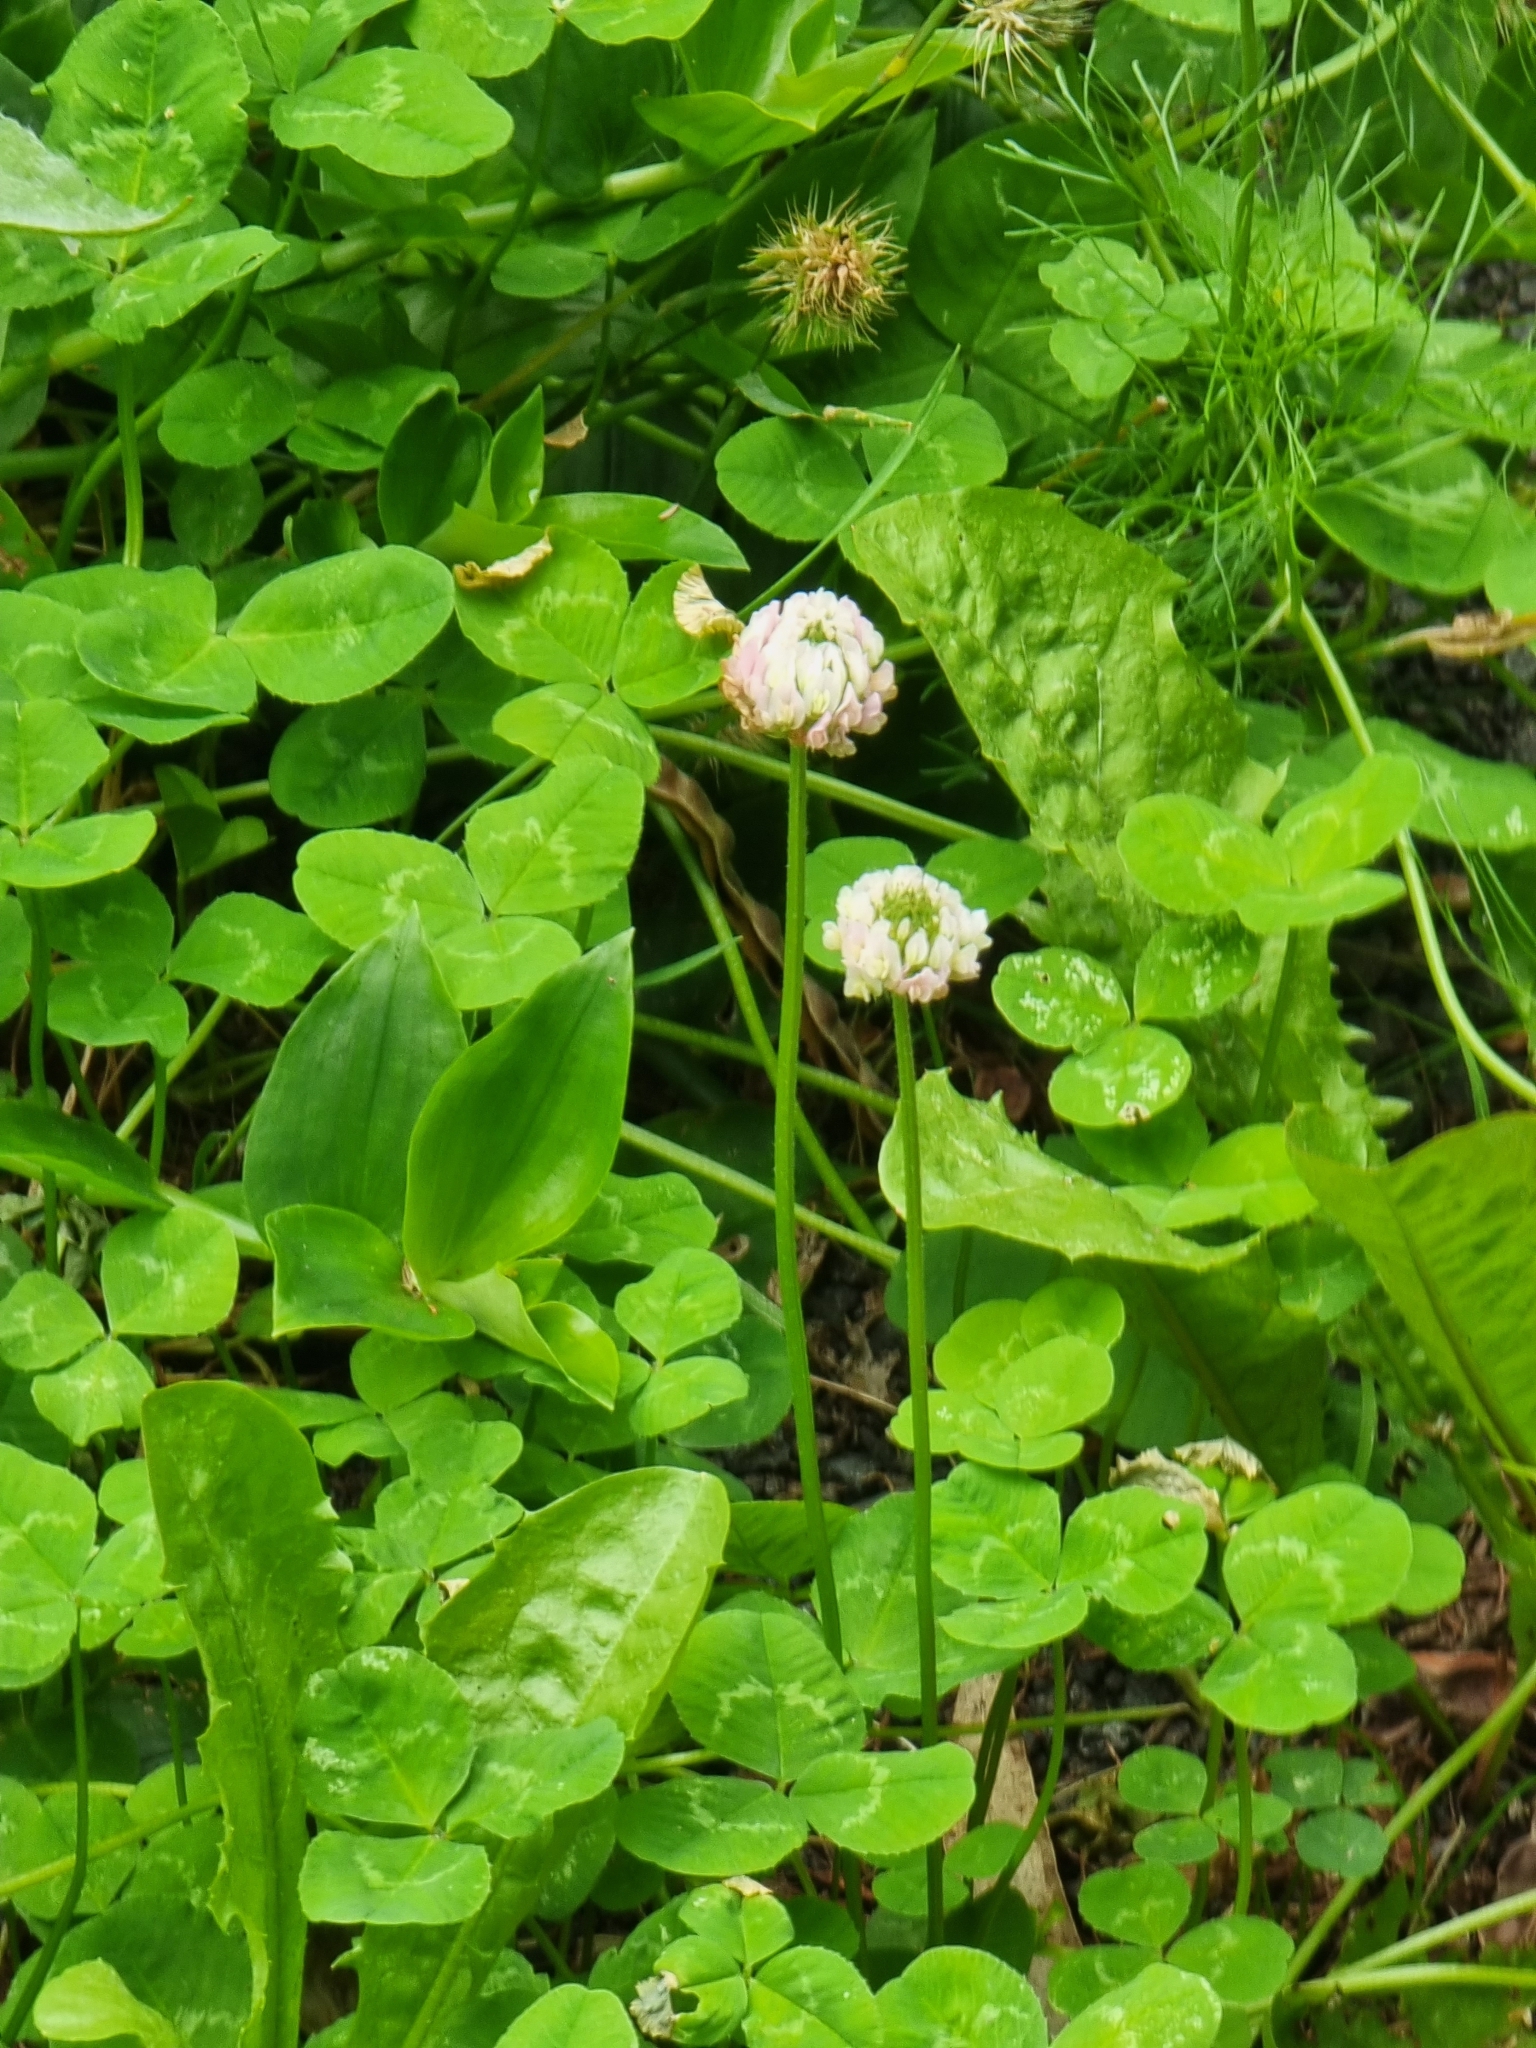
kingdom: Plantae
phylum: Tracheophyta
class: Magnoliopsida
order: Fabales
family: Fabaceae
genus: Trifolium
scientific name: Trifolium repens
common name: White clover
